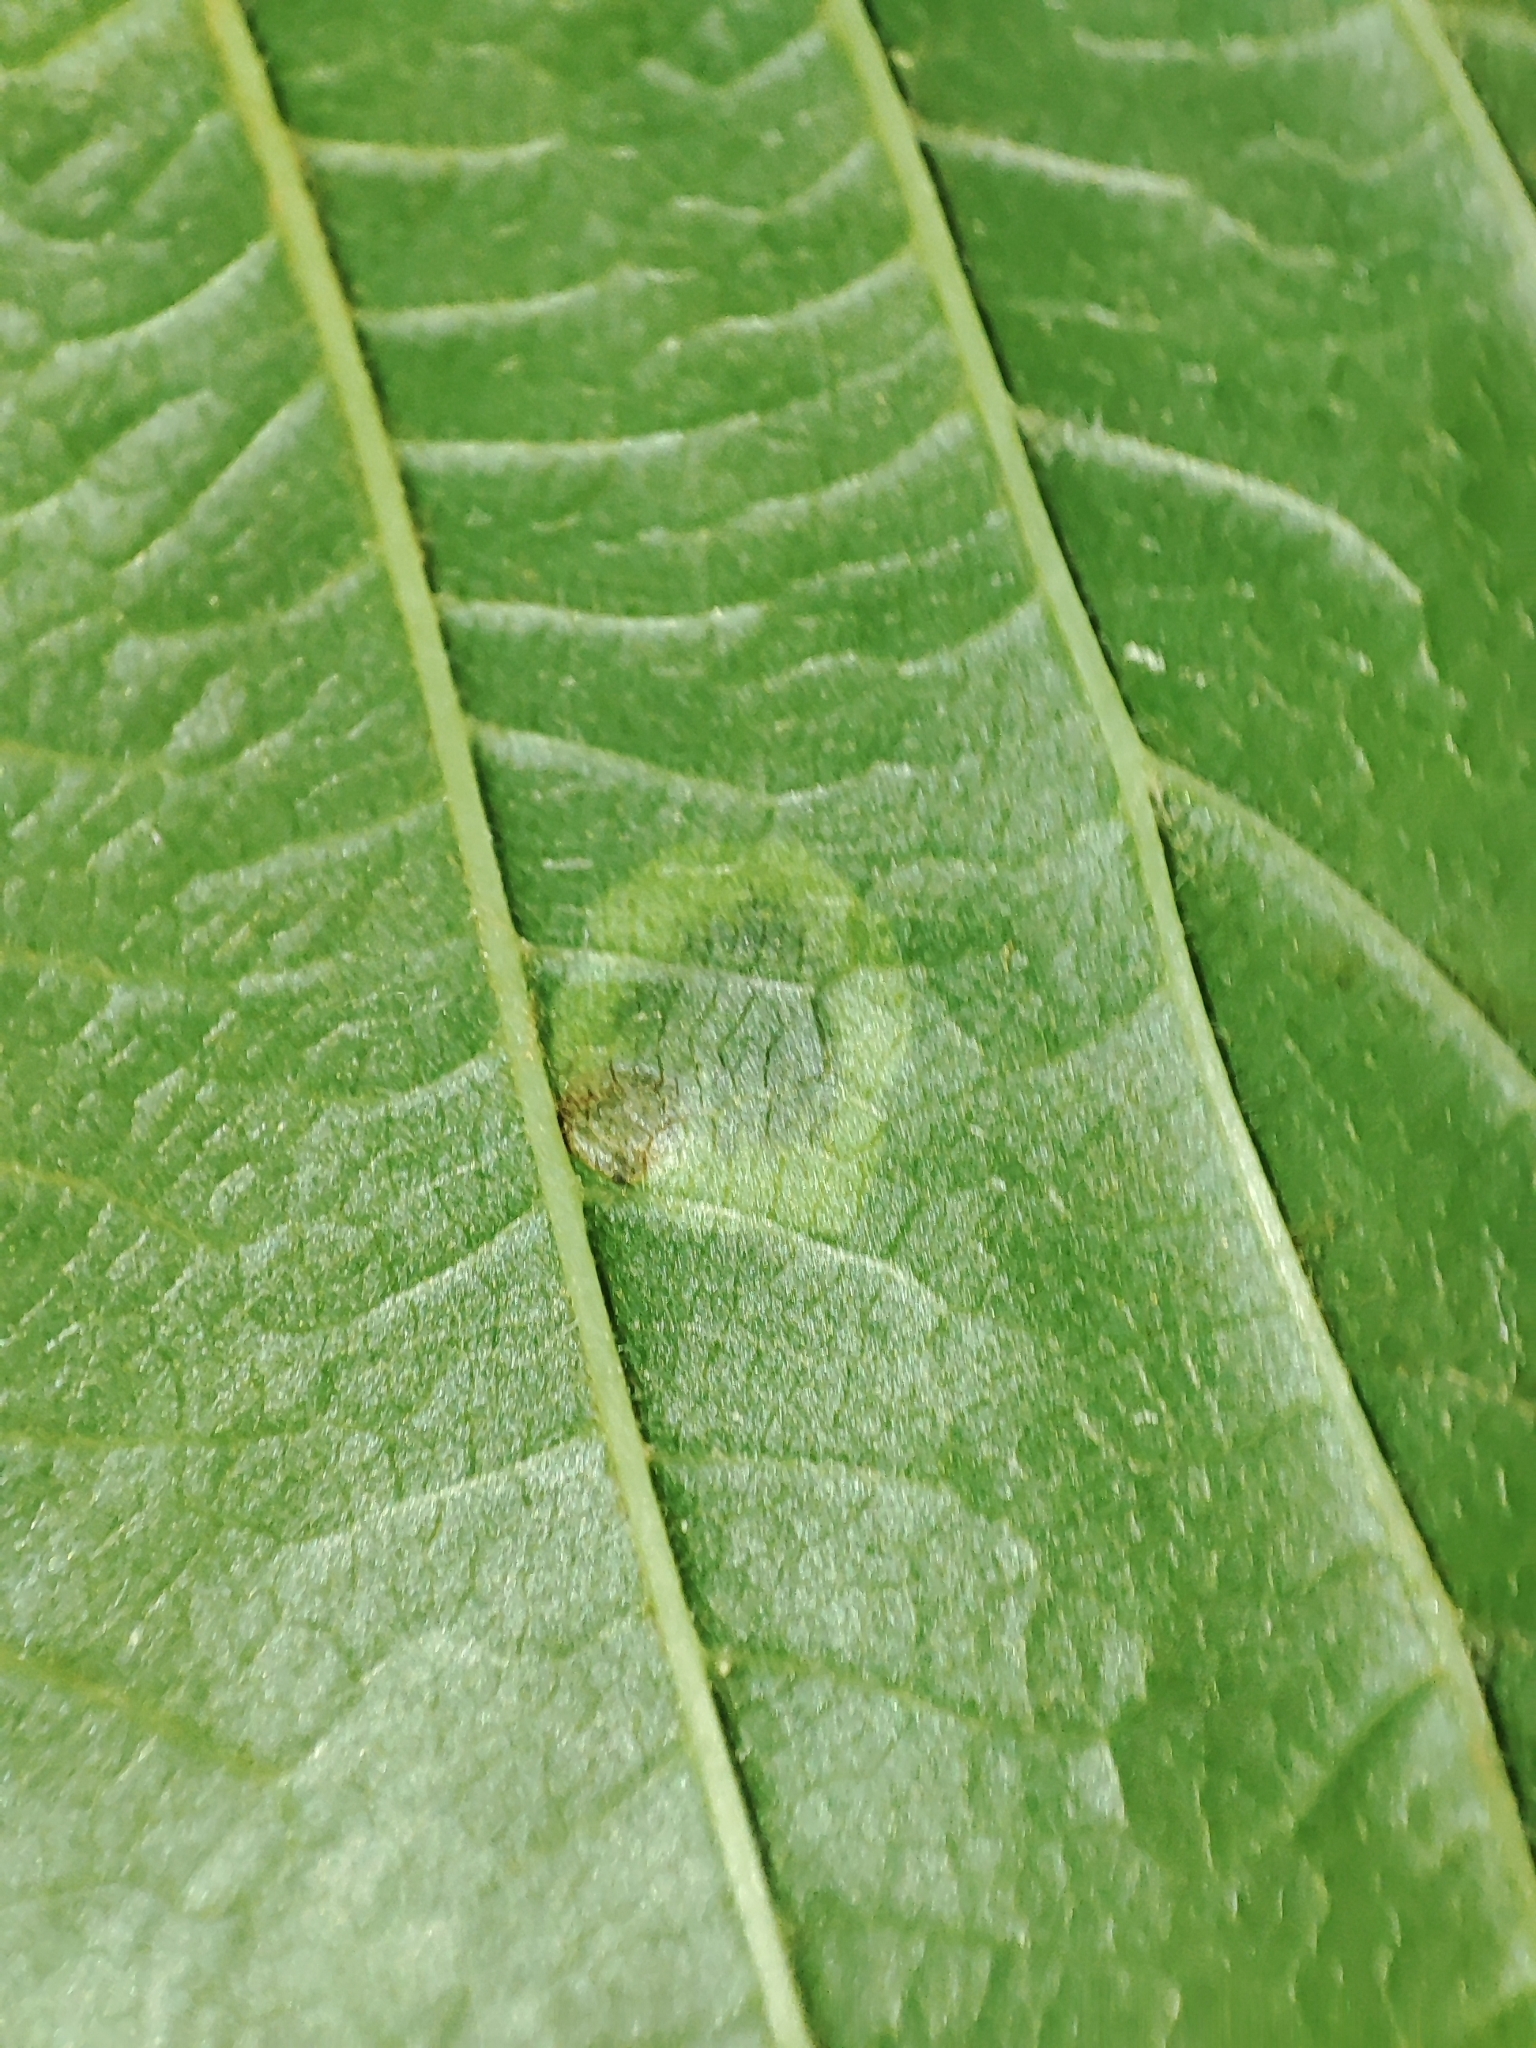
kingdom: Animalia
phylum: Arthropoda
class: Insecta
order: Lepidoptera
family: Gracillariidae
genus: Cameraria
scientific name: Cameraria ohridella
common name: Horse-chestnut leaf-miner
